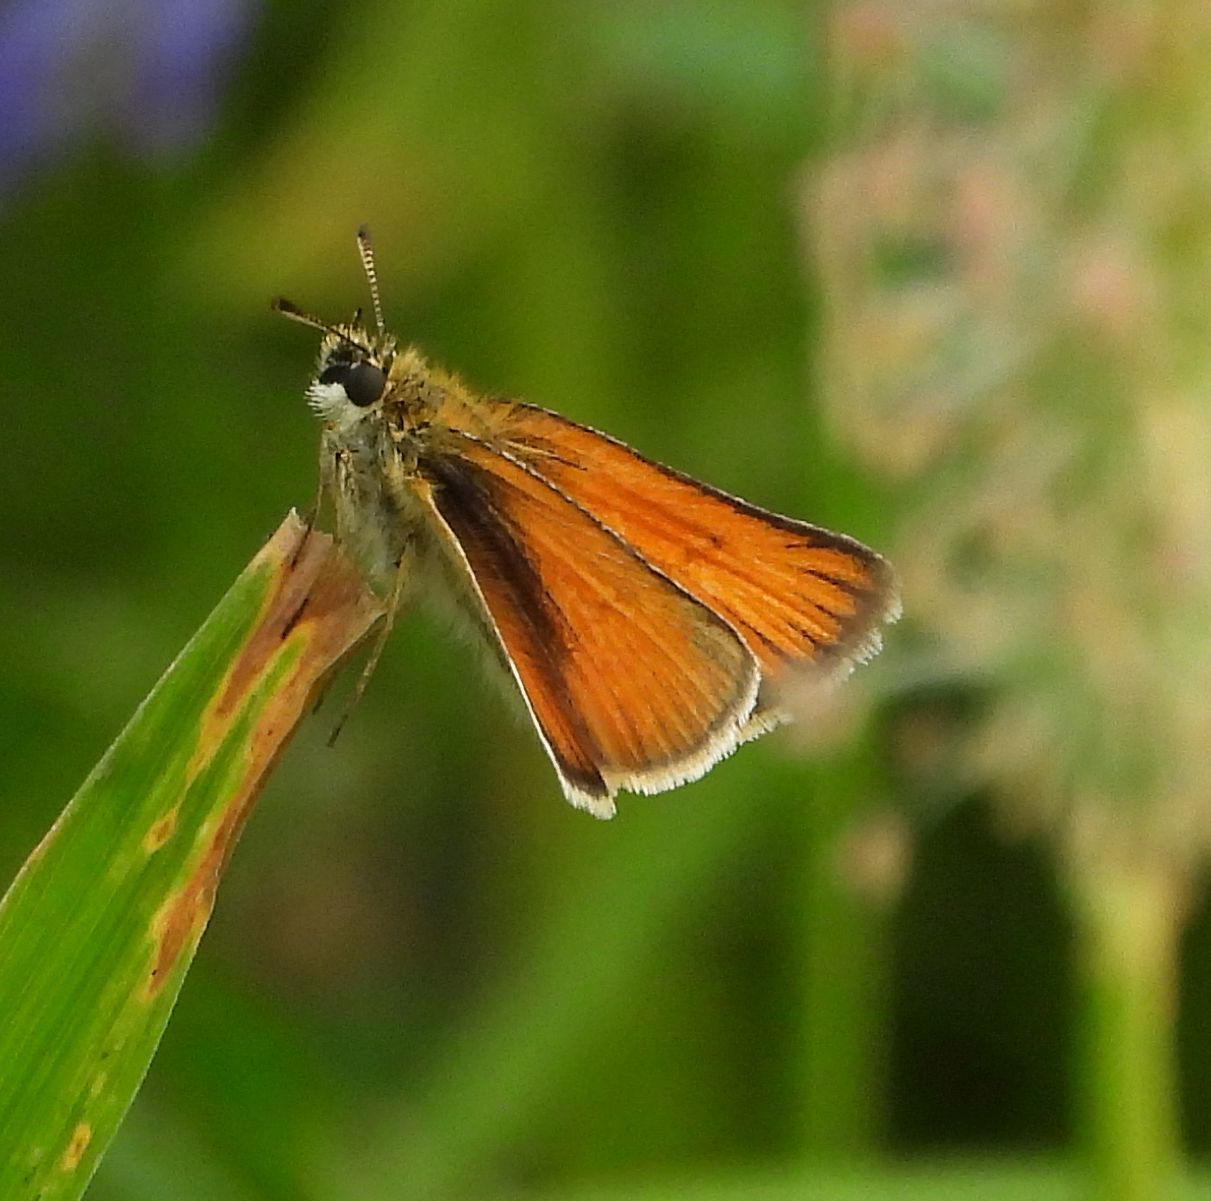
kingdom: Animalia
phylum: Arthropoda
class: Insecta
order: Lepidoptera
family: Hesperiidae
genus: Thymelicus
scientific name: Thymelicus lineola
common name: Essex skipper
